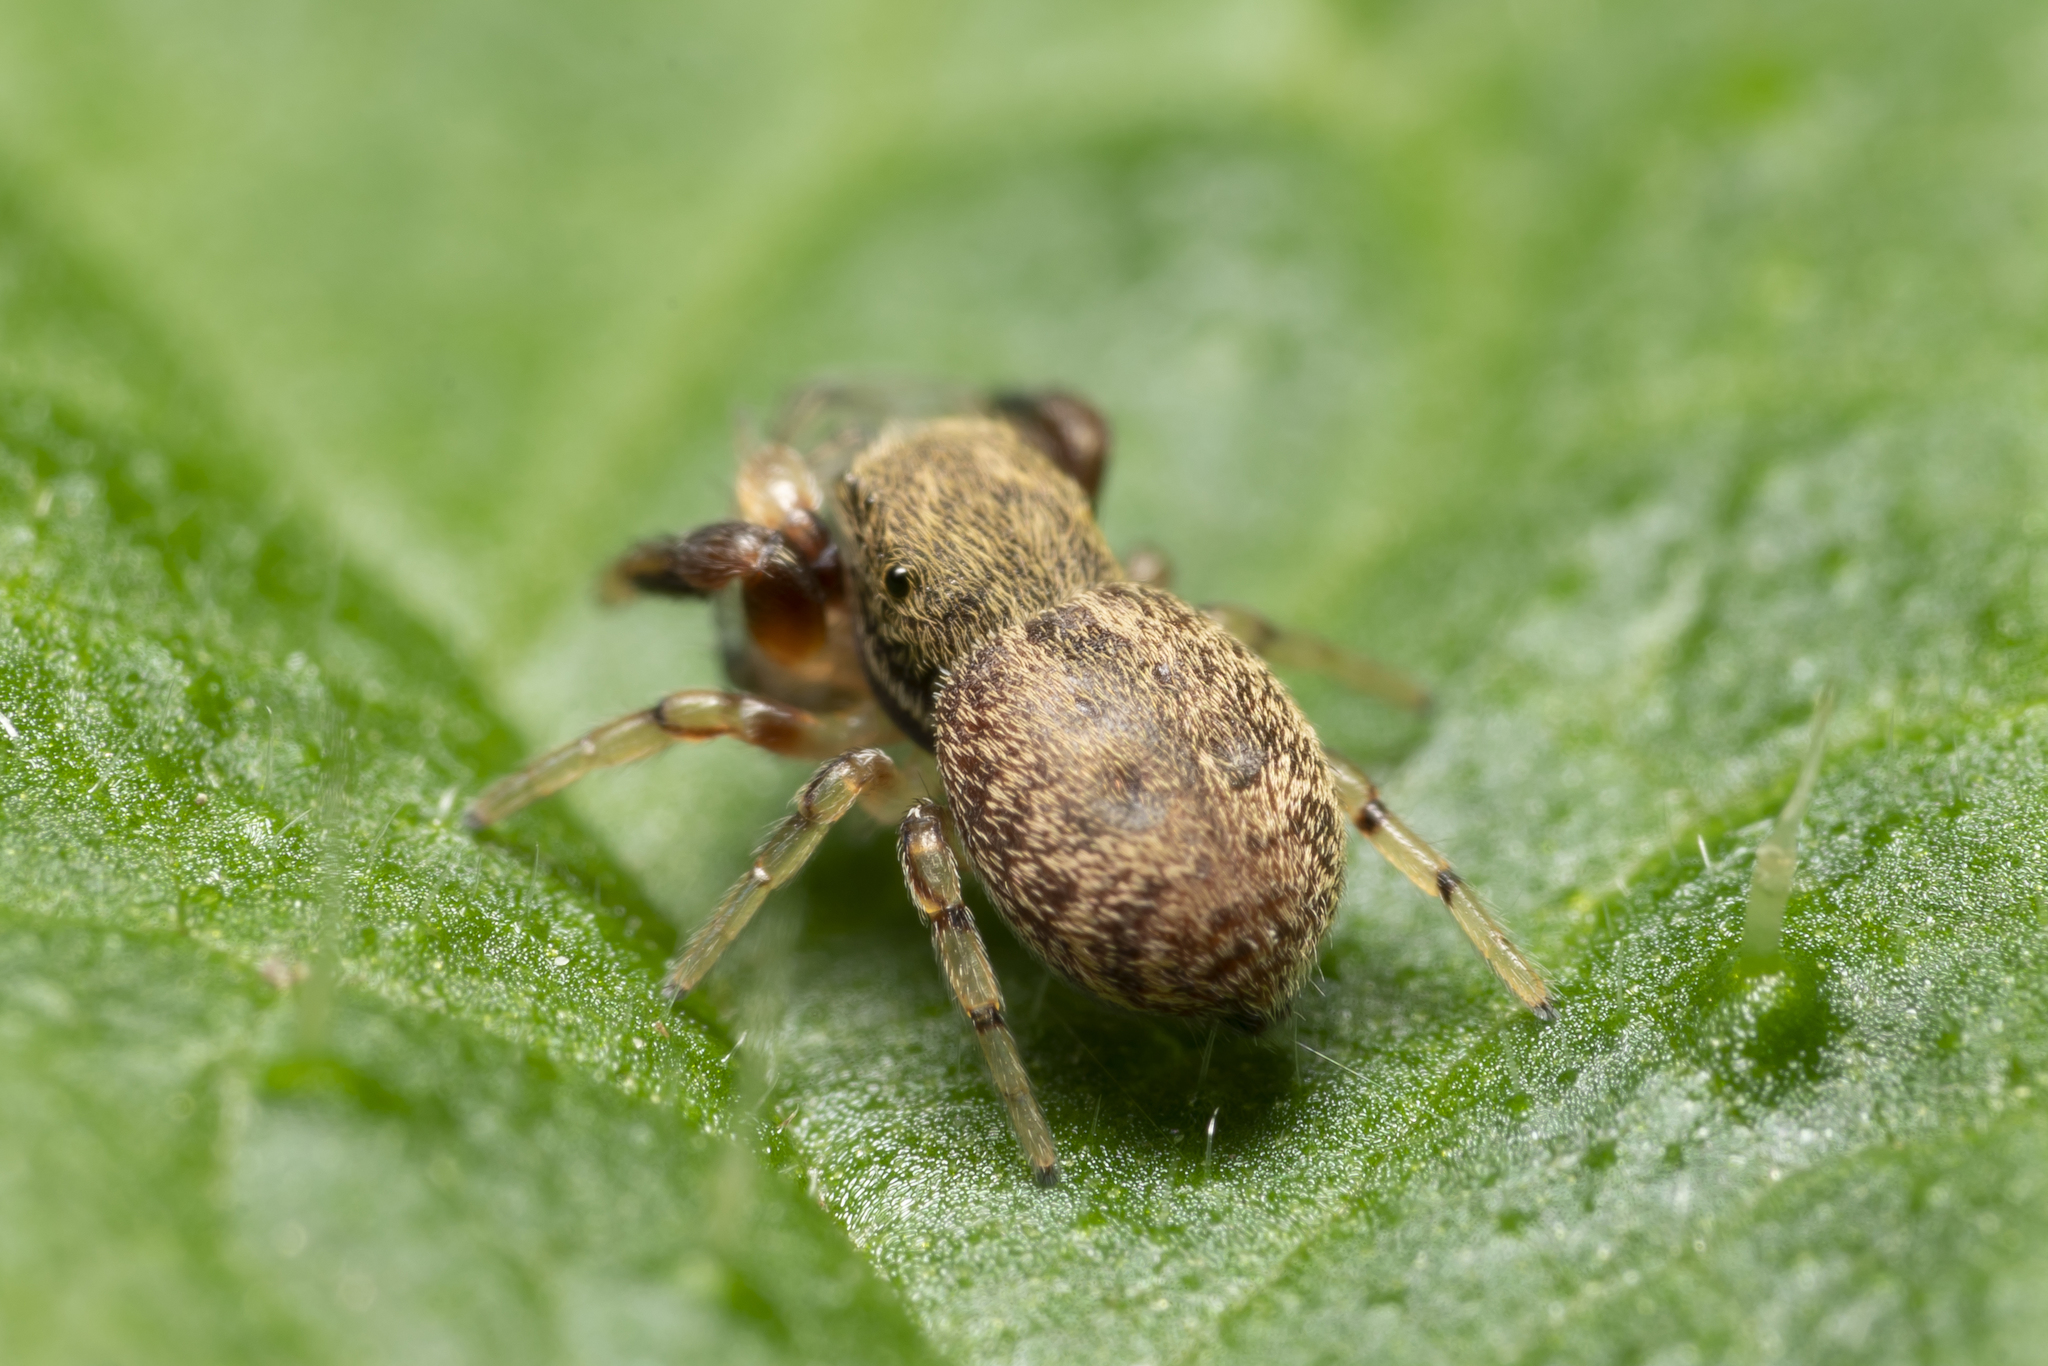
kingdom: Animalia
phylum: Arthropoda
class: Arachnida
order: Araneae
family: Salticidae
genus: Ballus
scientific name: Ballus chalybeius
